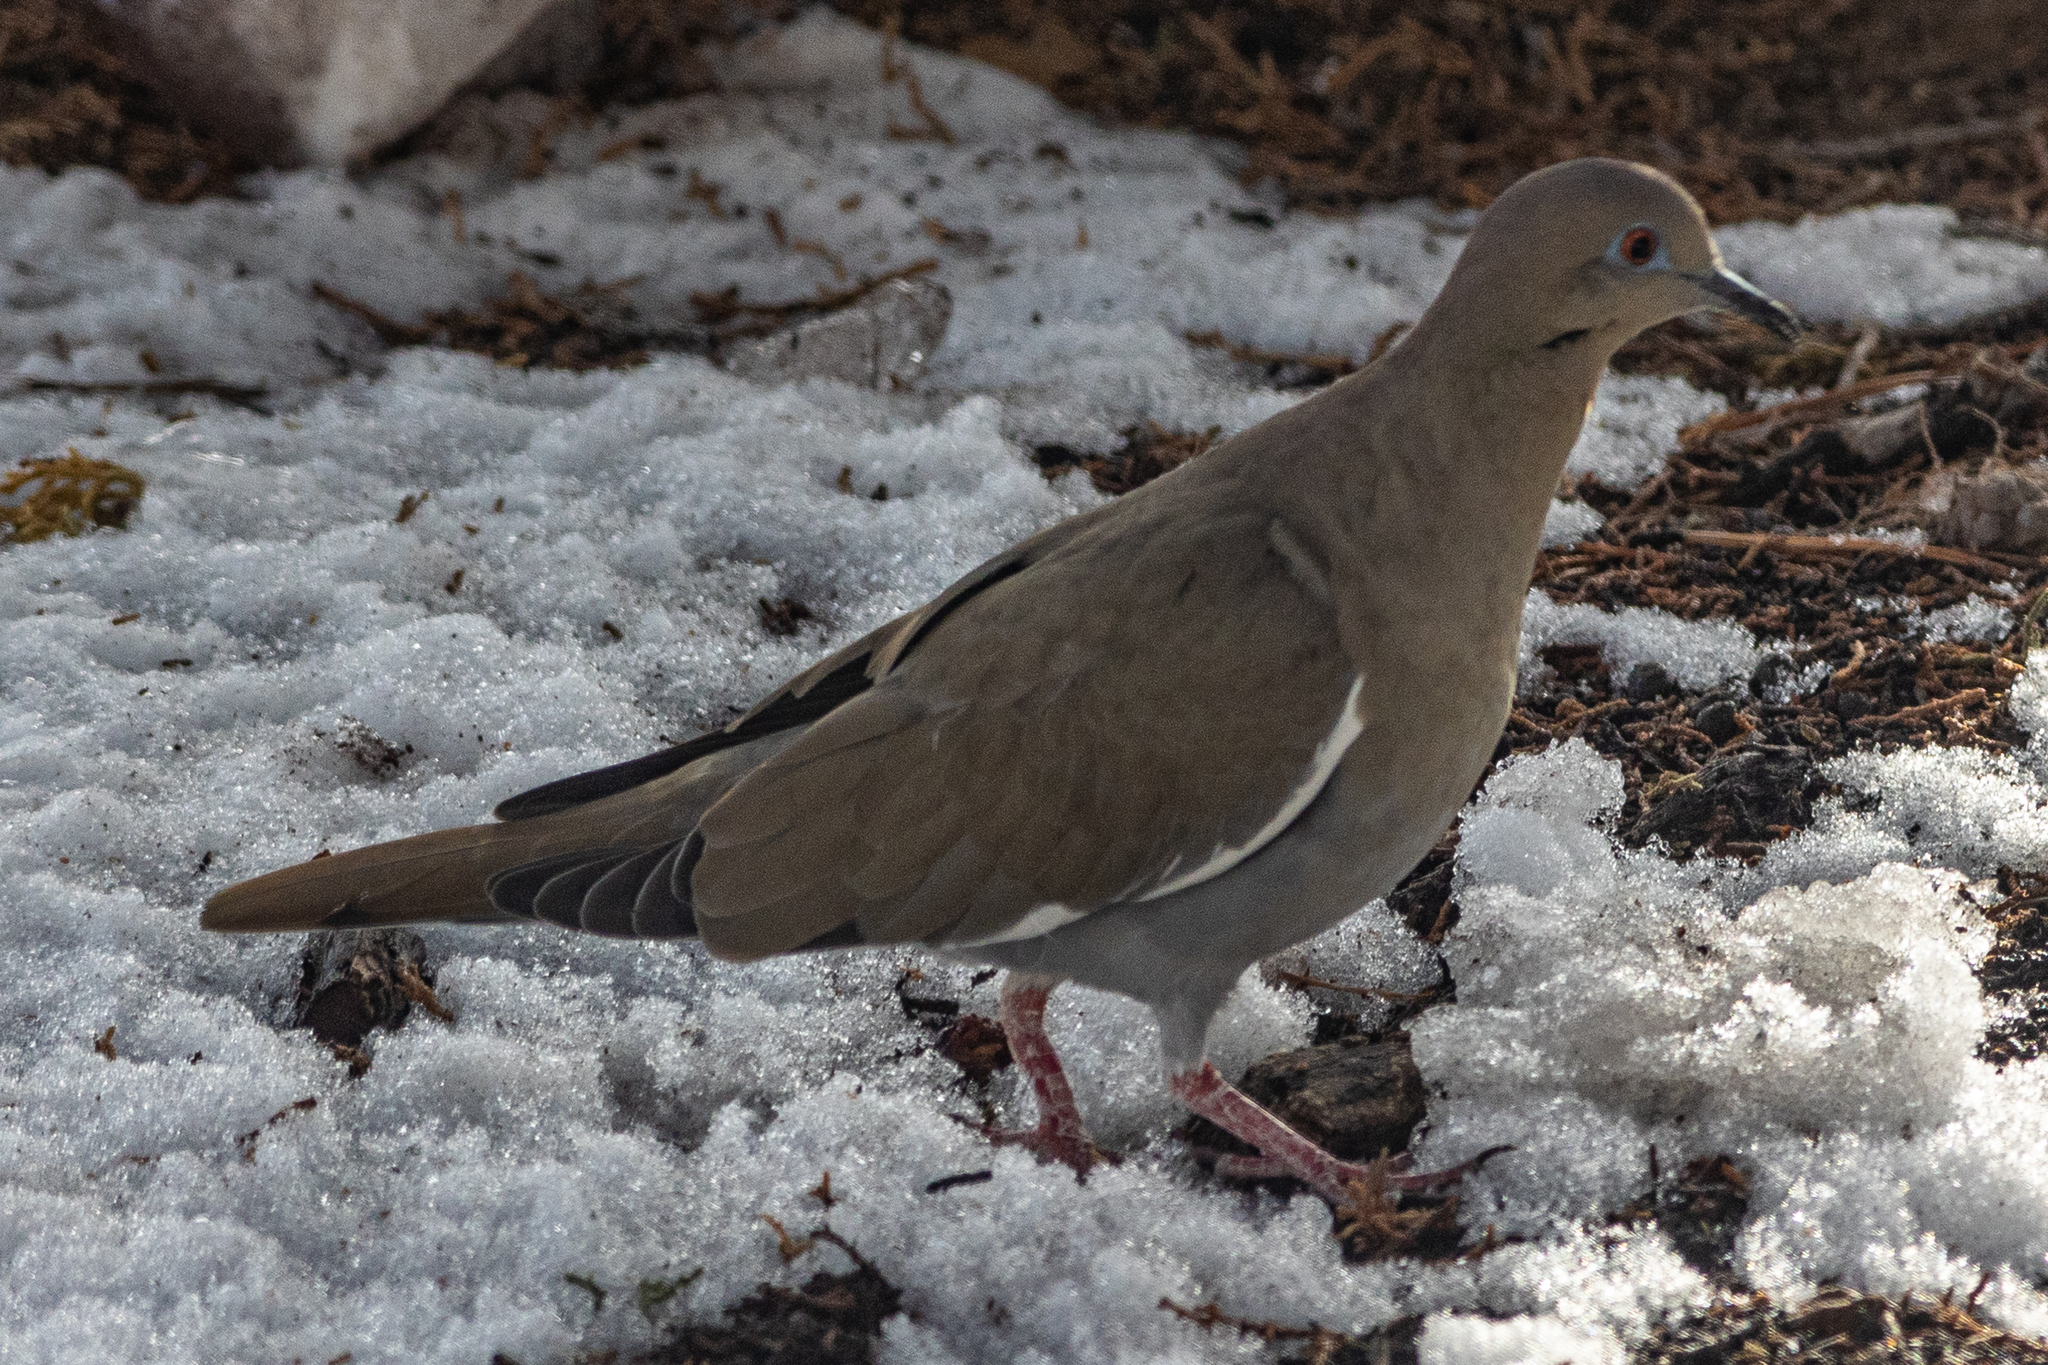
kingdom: Animalia
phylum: Chordata
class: Aves
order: Columbiformes
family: Columbidae
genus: Zenaida
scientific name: Zenaida asiatica
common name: White-winged dove
